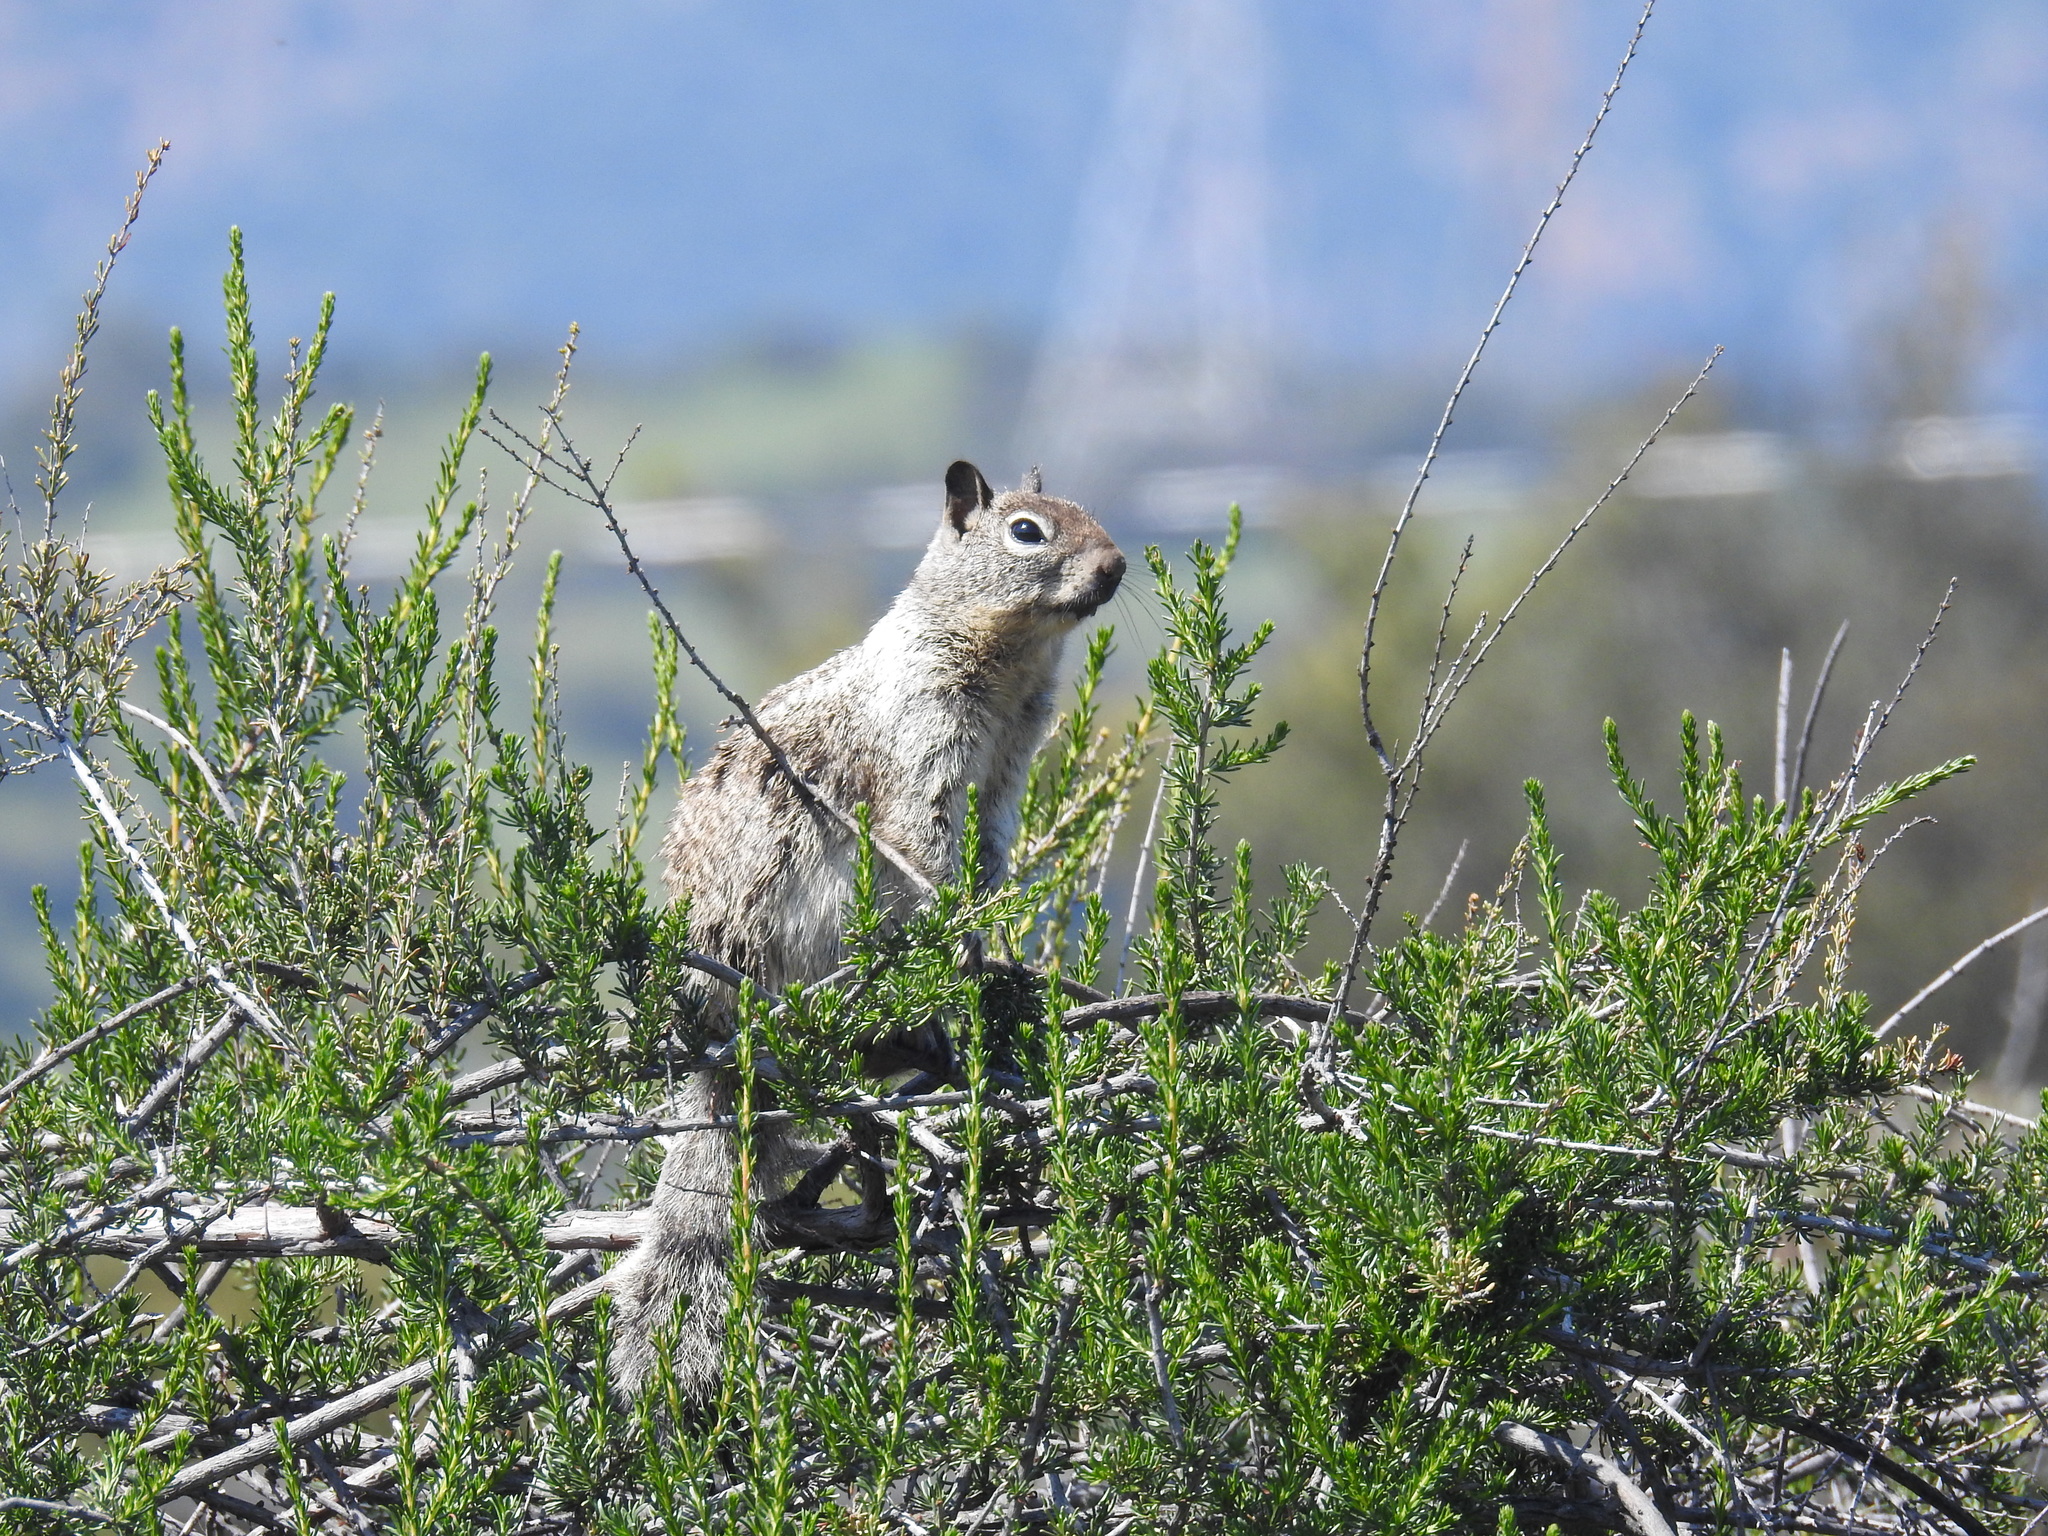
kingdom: Animalia
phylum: Chordata
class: Mammalia
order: Rodentia
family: Sciuridae
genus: Otospermophilus
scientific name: Otospermophilus beecheyi
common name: California ground squirrel
